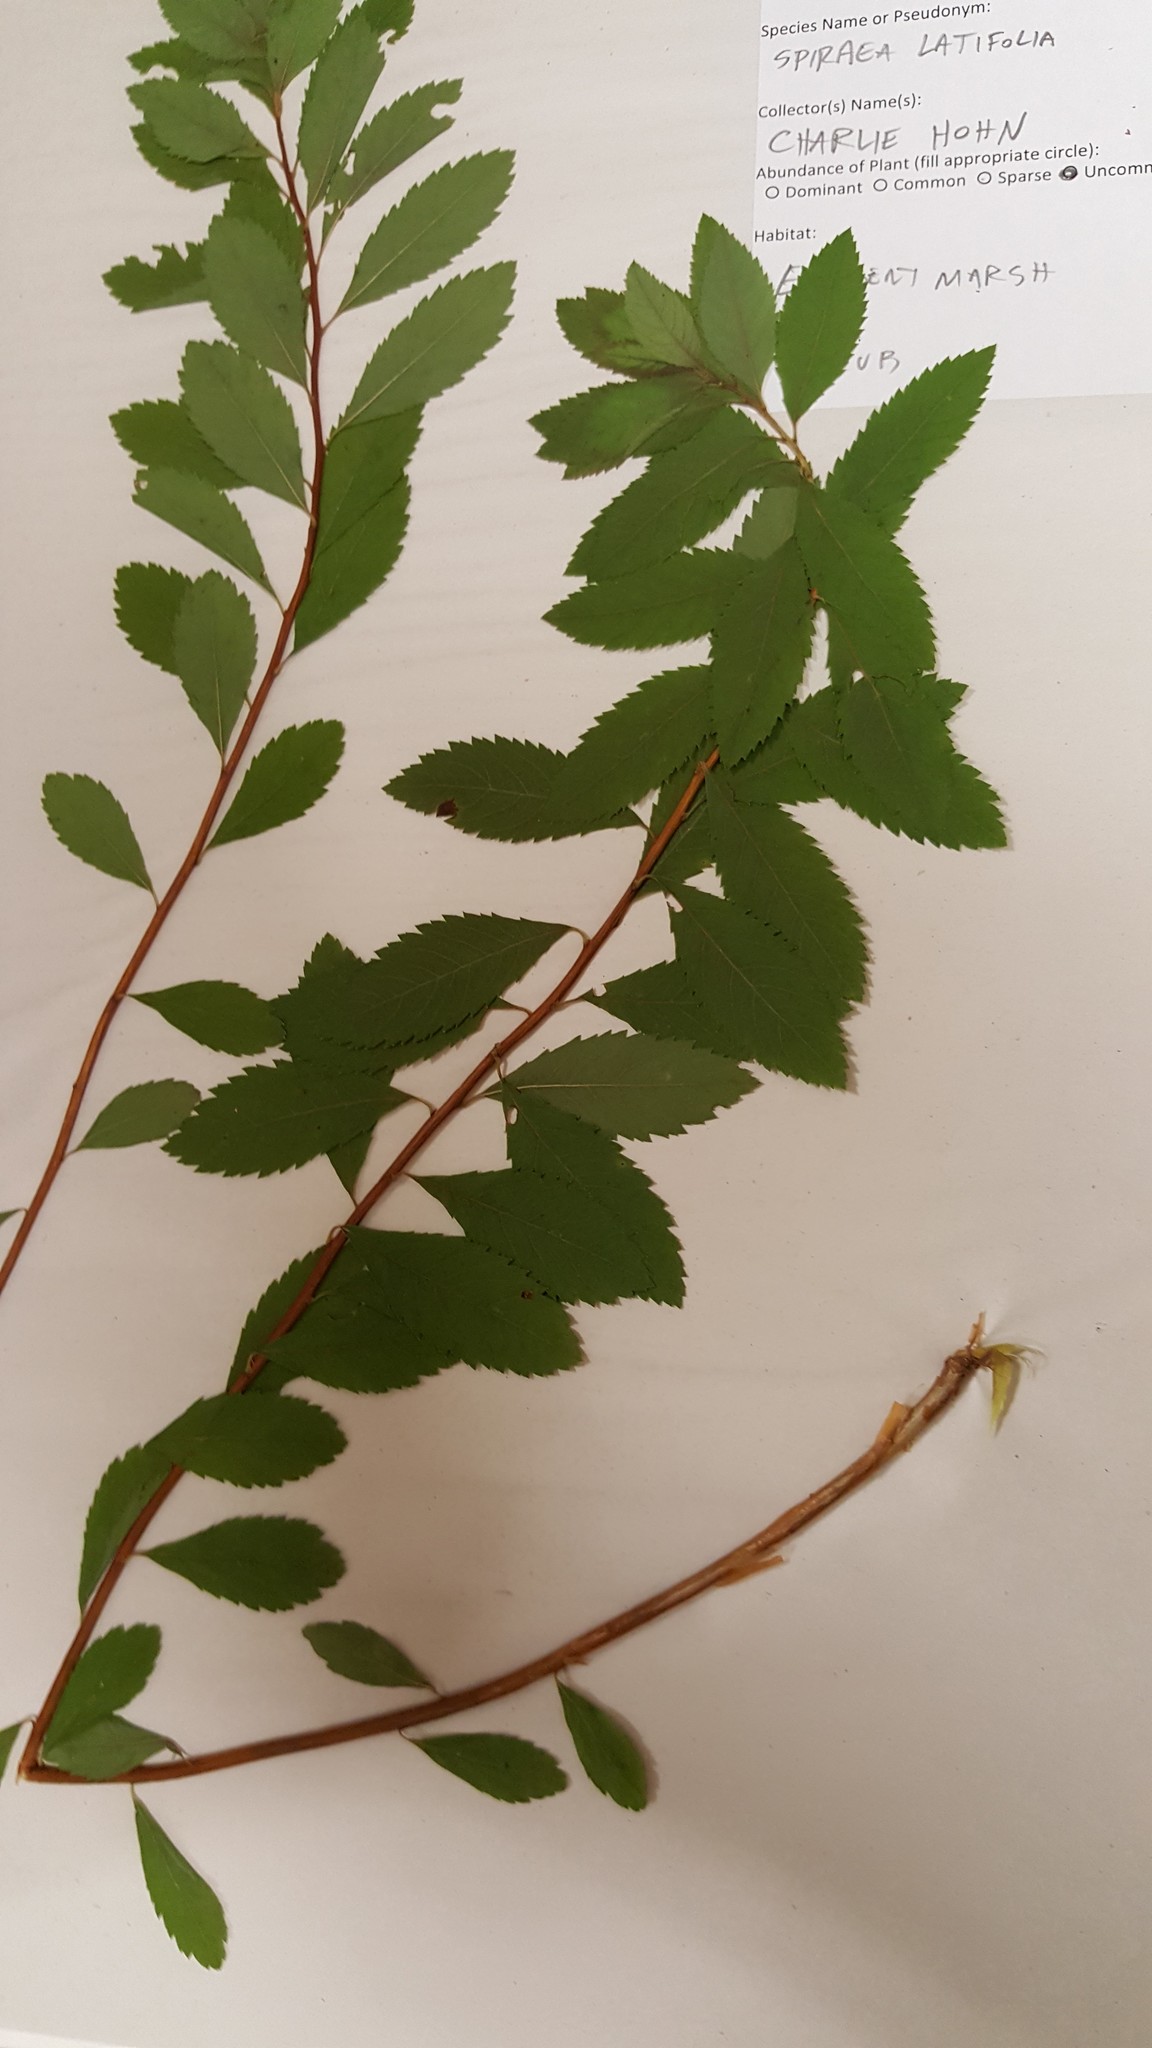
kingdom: Plantae
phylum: Tracheophyta
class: Magnoliopsida
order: Rosales
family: Rosaceae
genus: Spiraea
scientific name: Spiraea alba
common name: Pale bridewort
